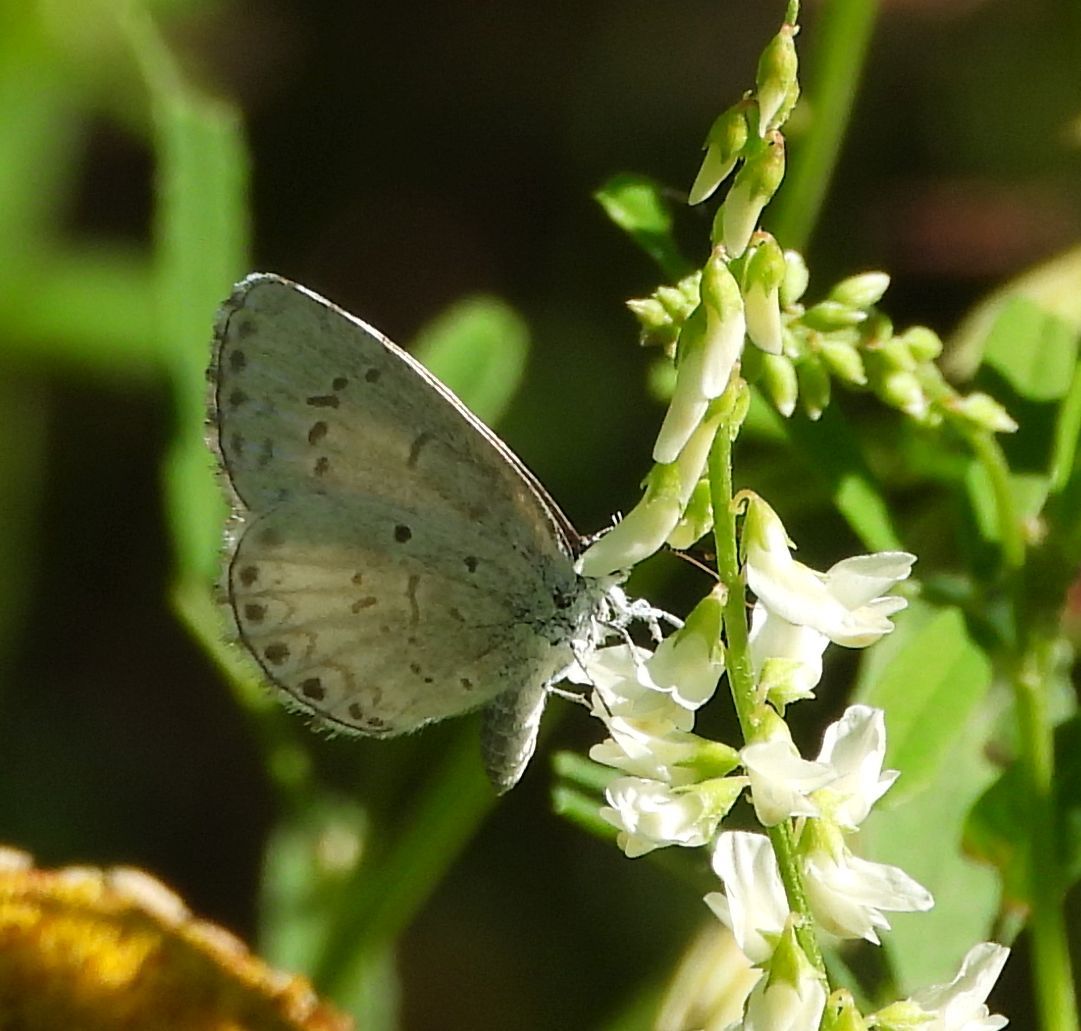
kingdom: Animalia
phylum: Arthropoda
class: Insecta
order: Lepidoptera
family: Lycaenidae
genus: Celastrina
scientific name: Celastrina lucia
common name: Lucia azure
